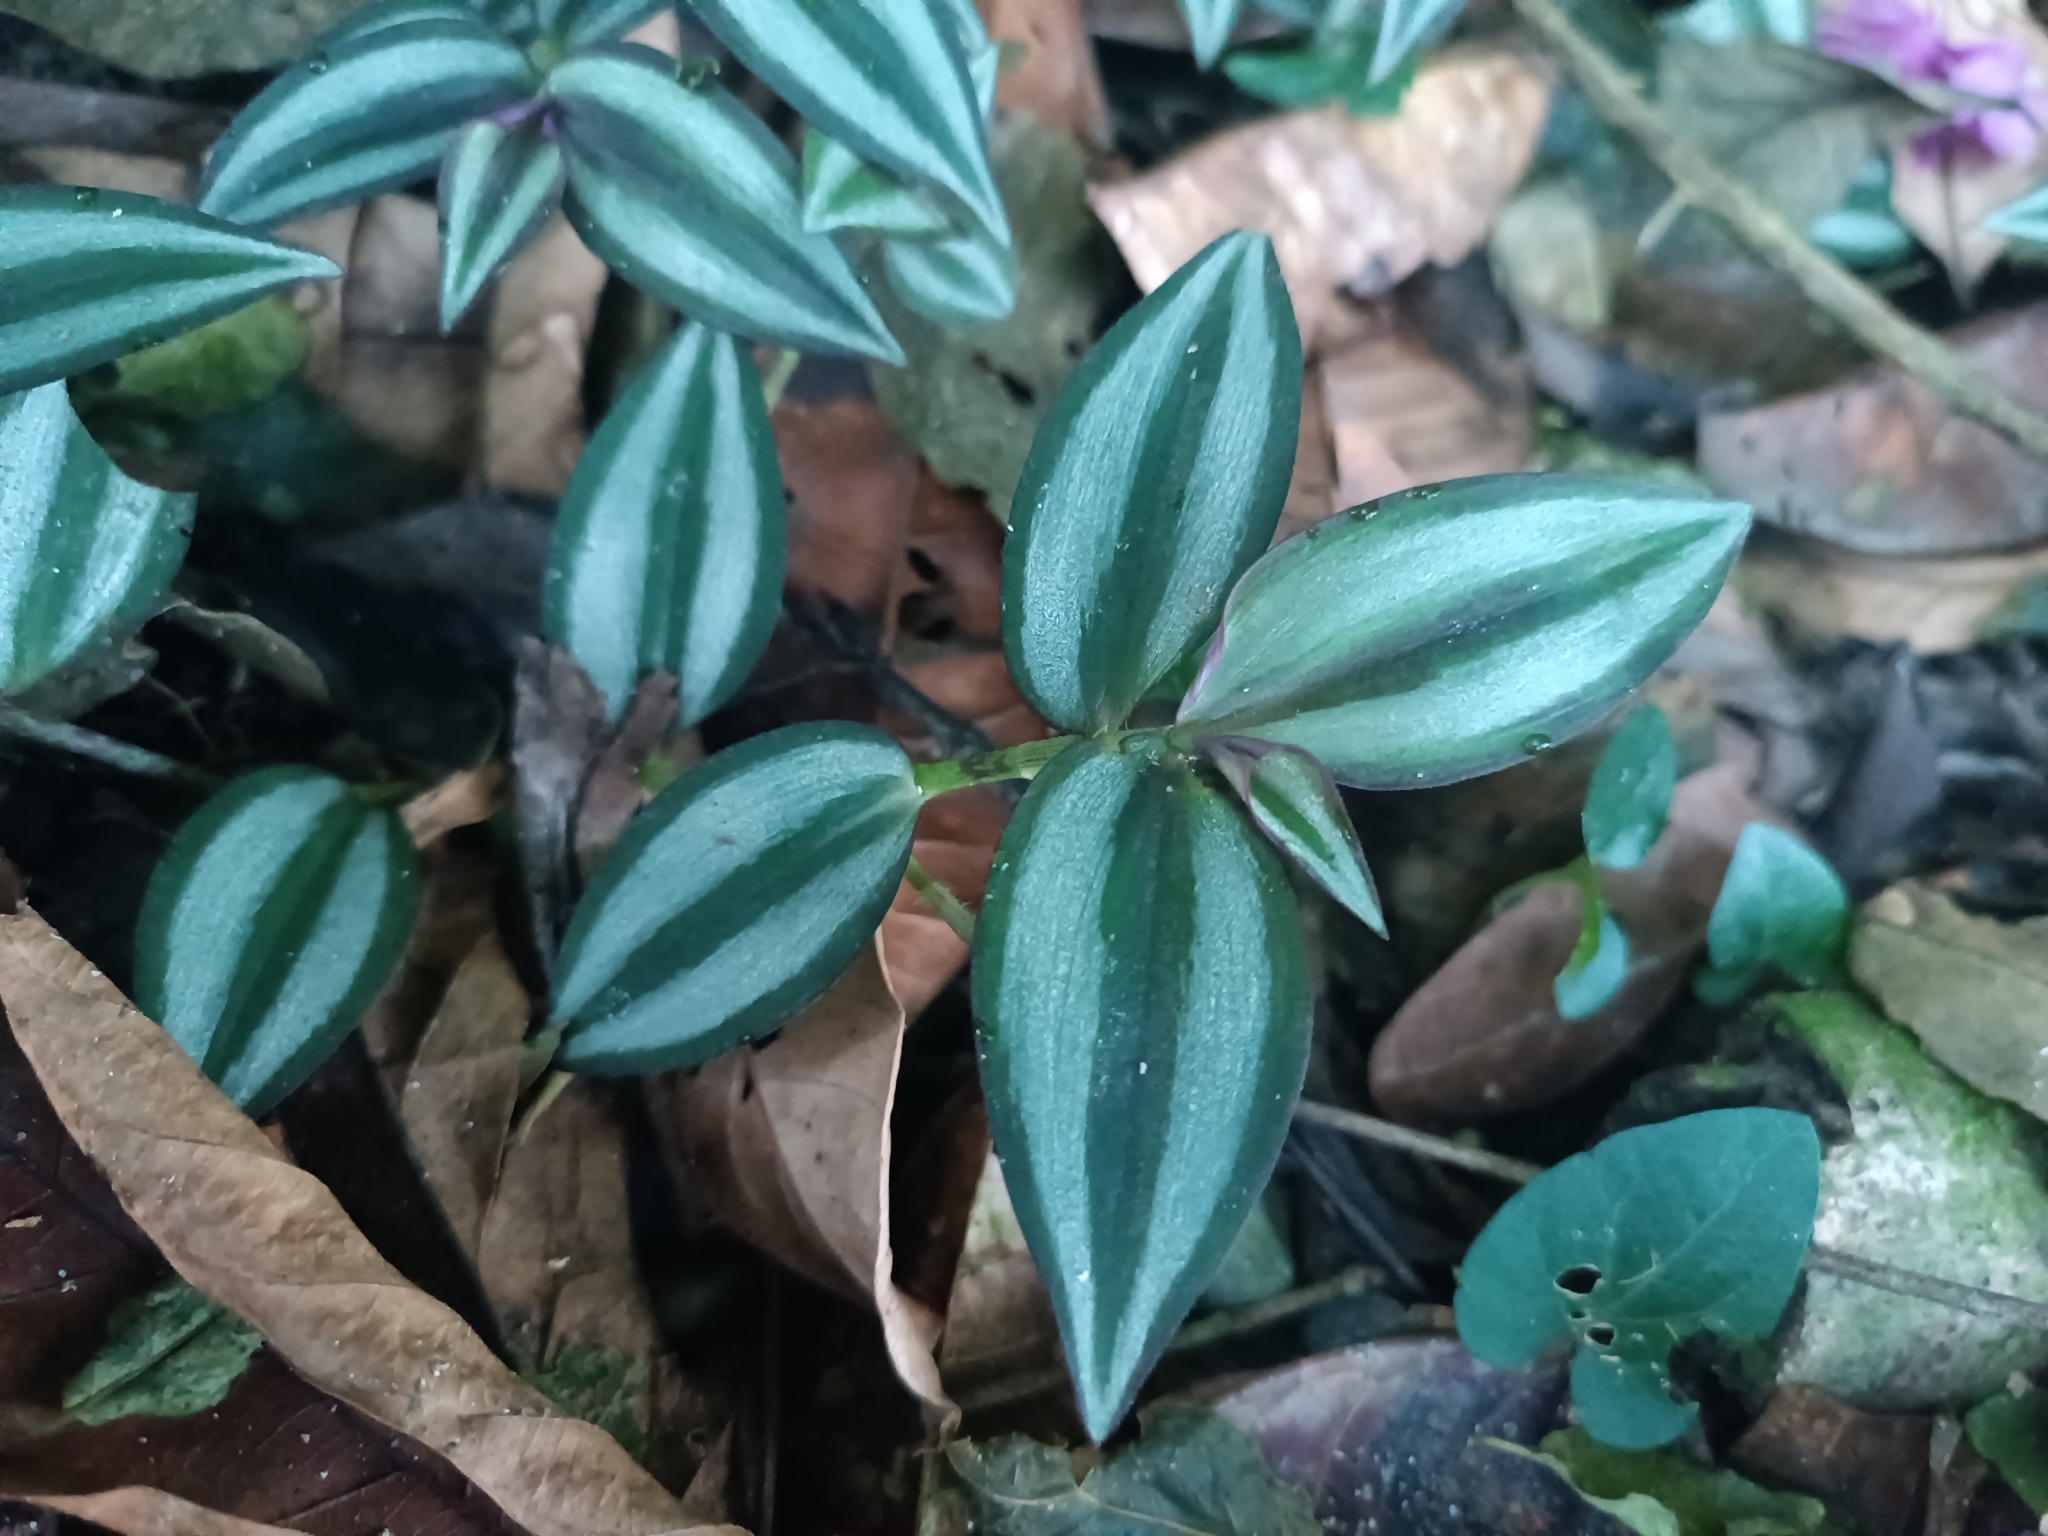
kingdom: Plantae
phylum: Tracheophyta
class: Liliopsida
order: Commelinales
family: Commelinaceae
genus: Tradescantia
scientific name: Tradescantia zebrina
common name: Inchplant
